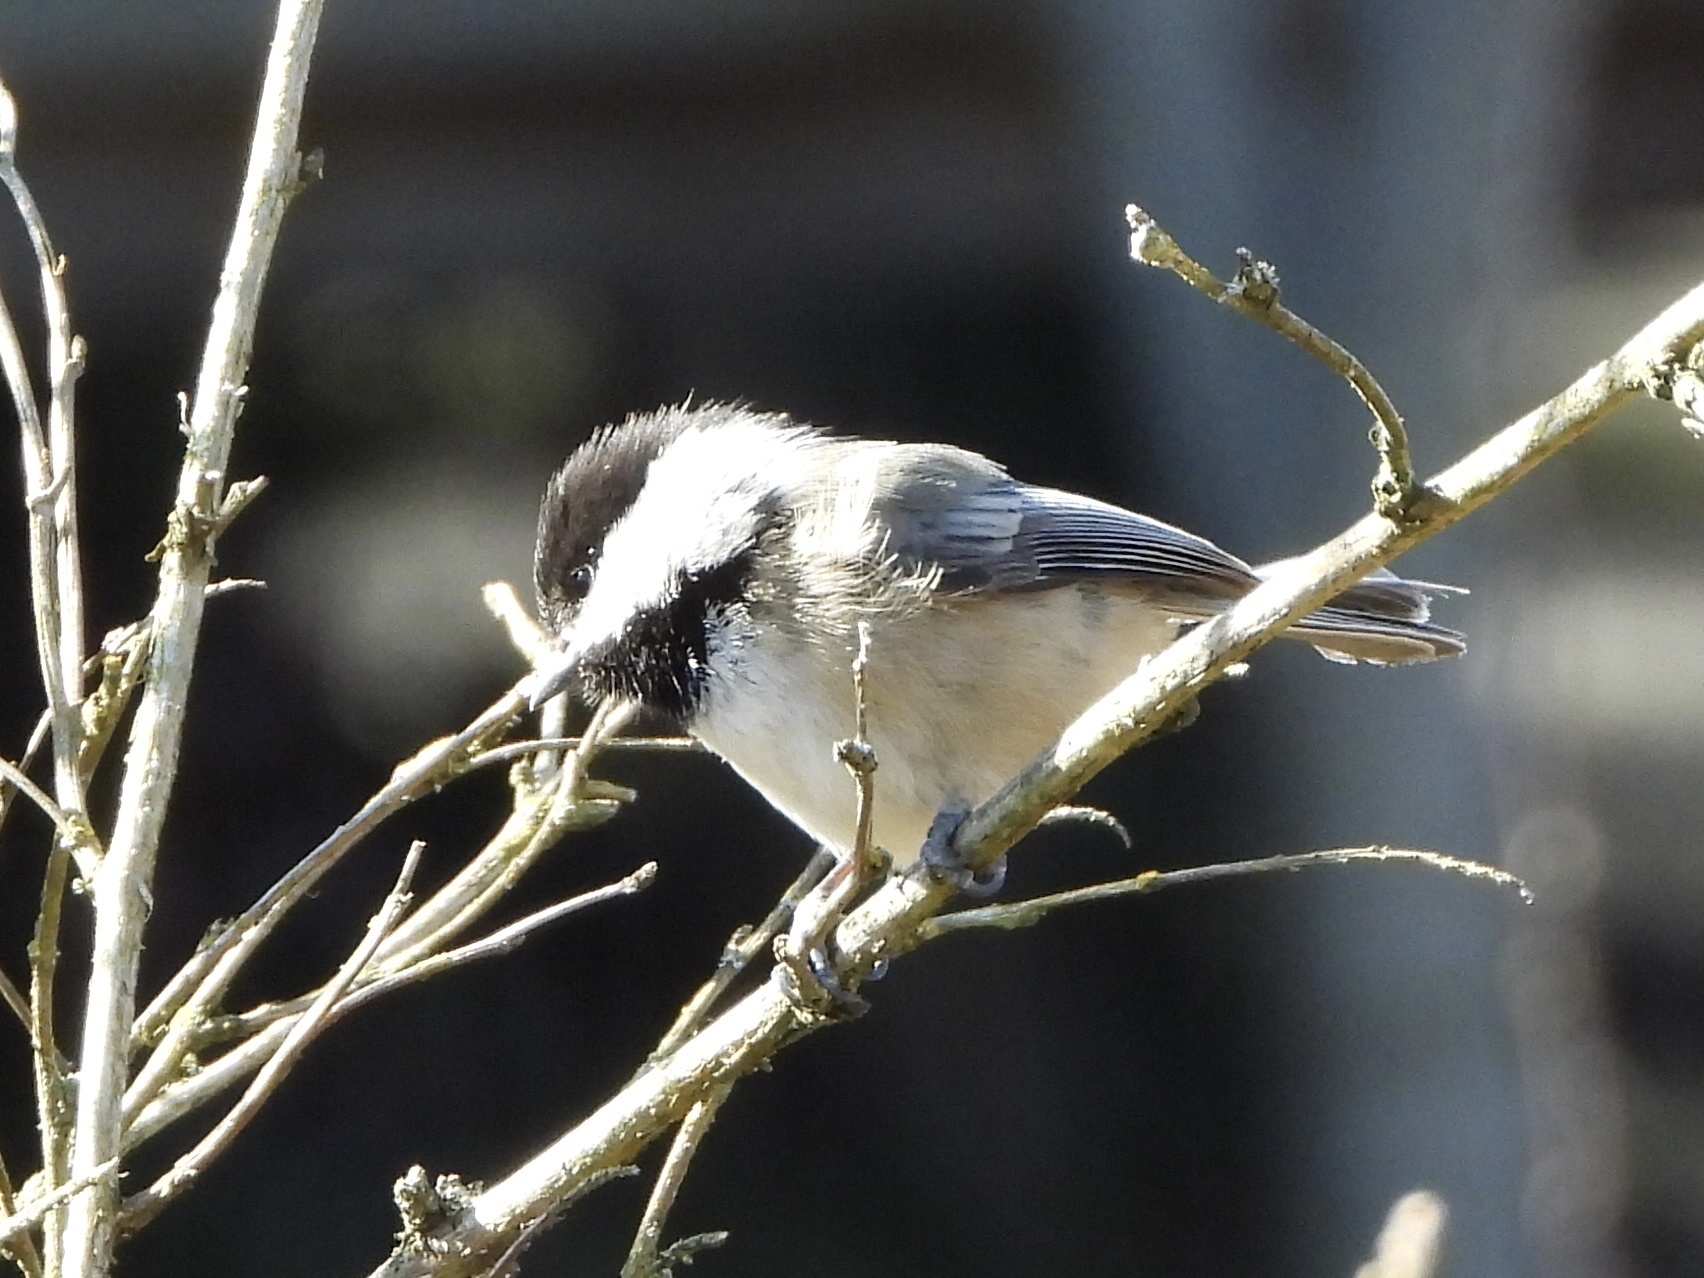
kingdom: Animalia
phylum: Chordata
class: Aves
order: Passeriformes
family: Paridae
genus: Poecile
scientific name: Poecile atricapillus
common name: Black-capped chickadee
